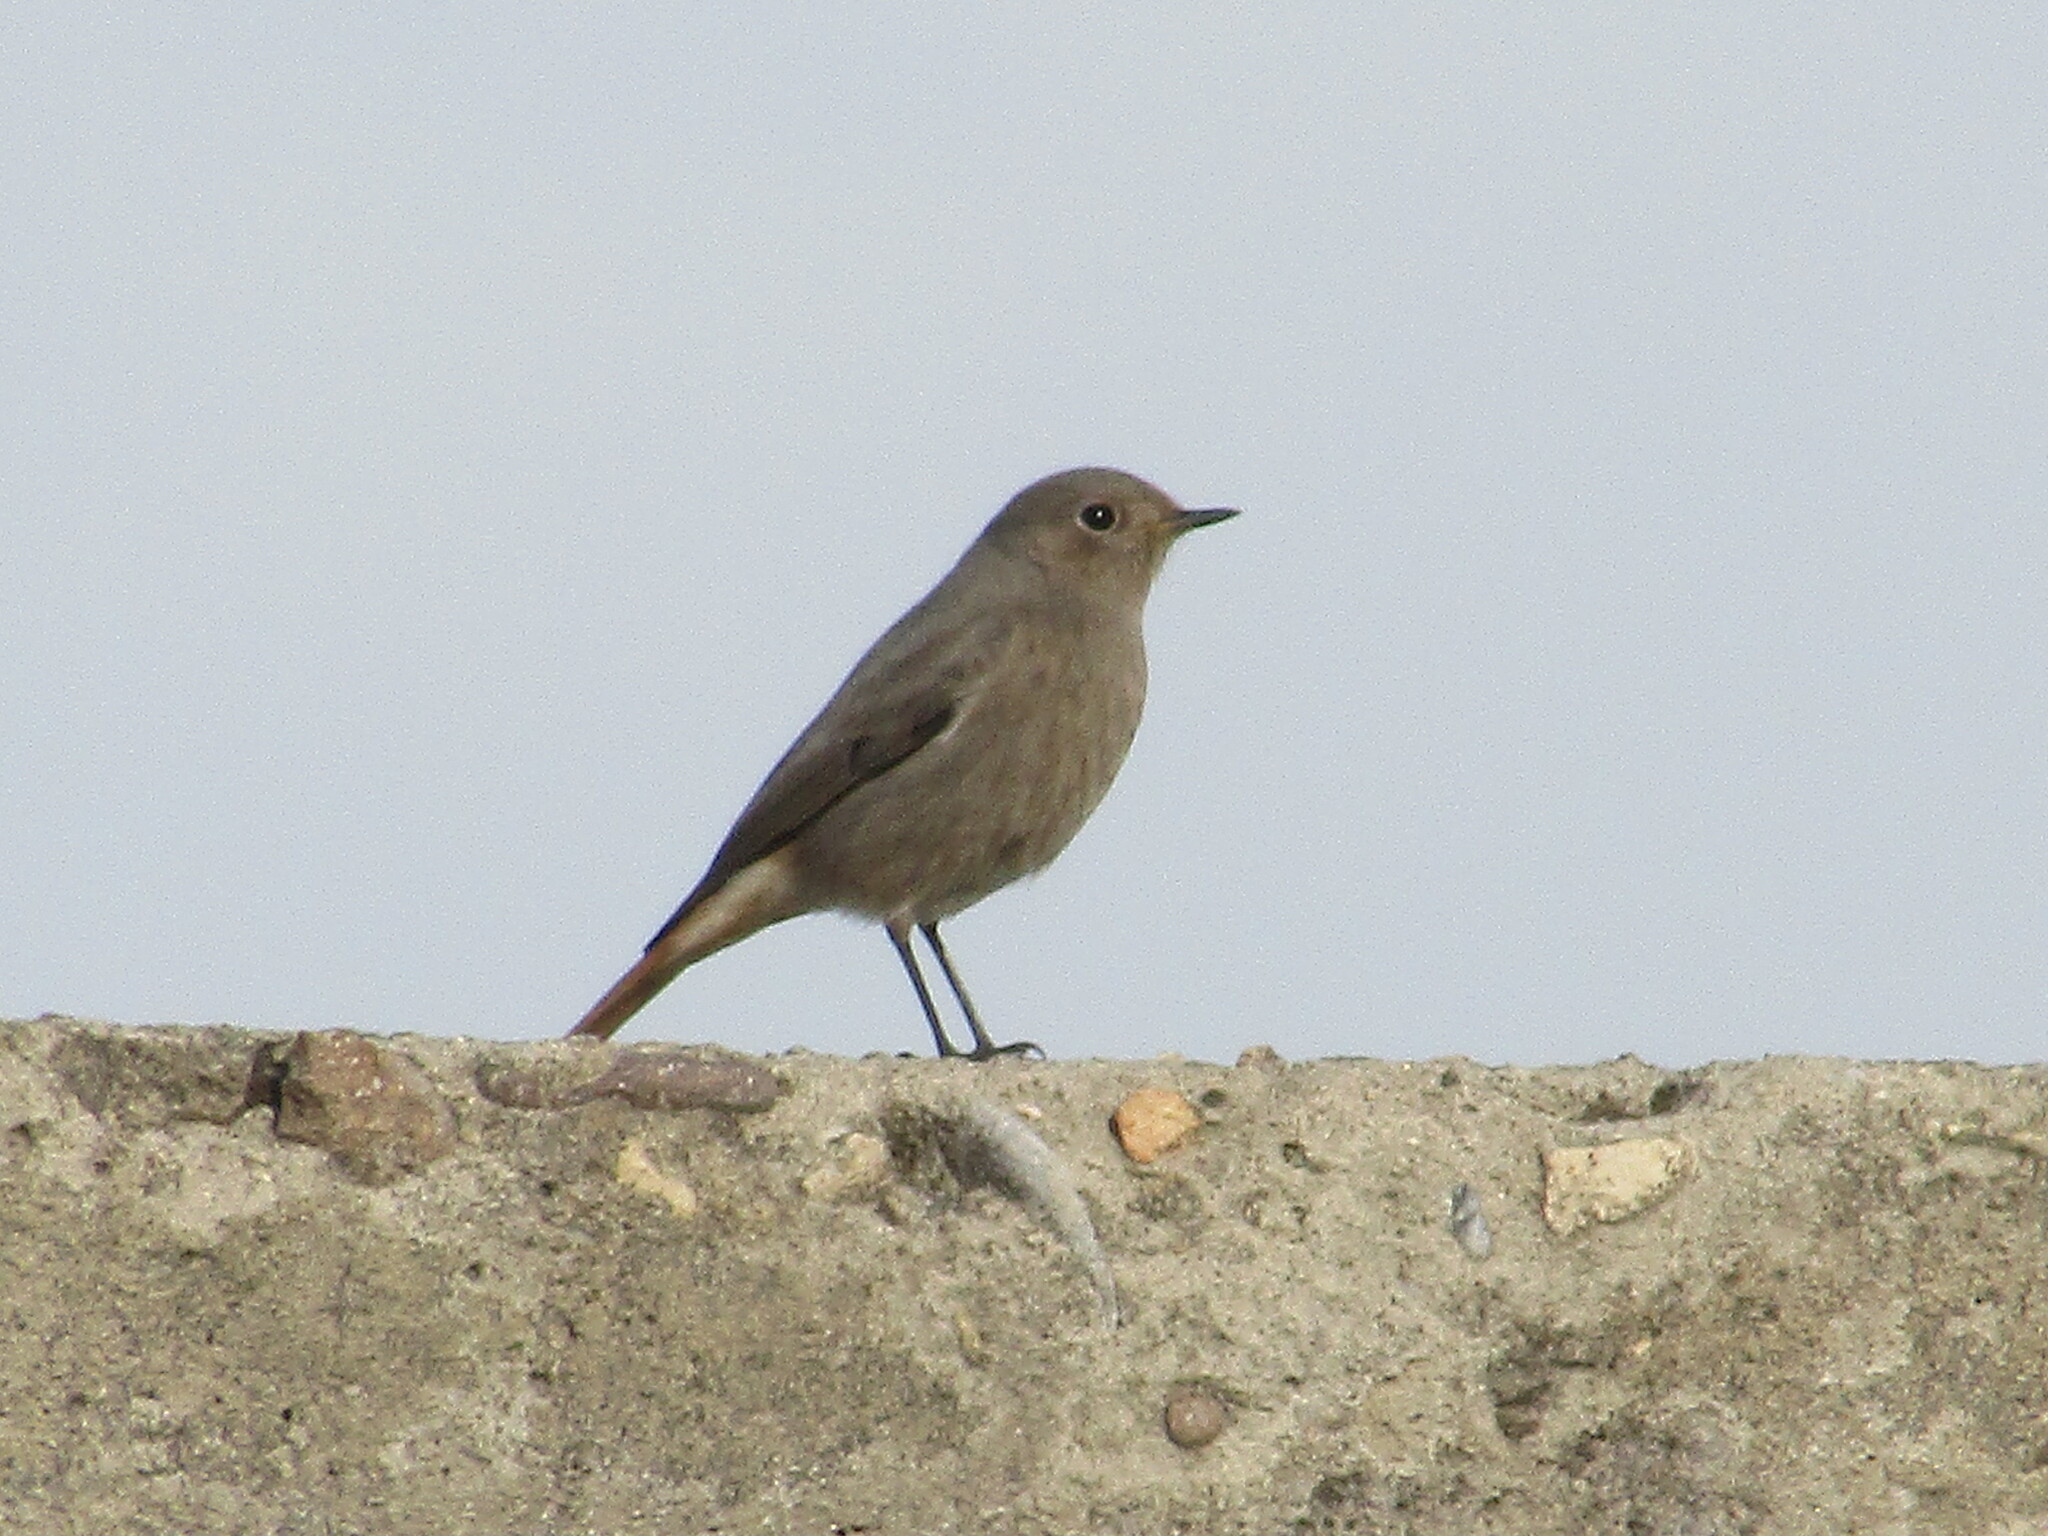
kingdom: Animalia
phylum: Chordata
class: Aves
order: Passeriformes
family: Muscicapidae
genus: Phoenicurus
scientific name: Phoenicurus ochruros
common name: Black redstart
